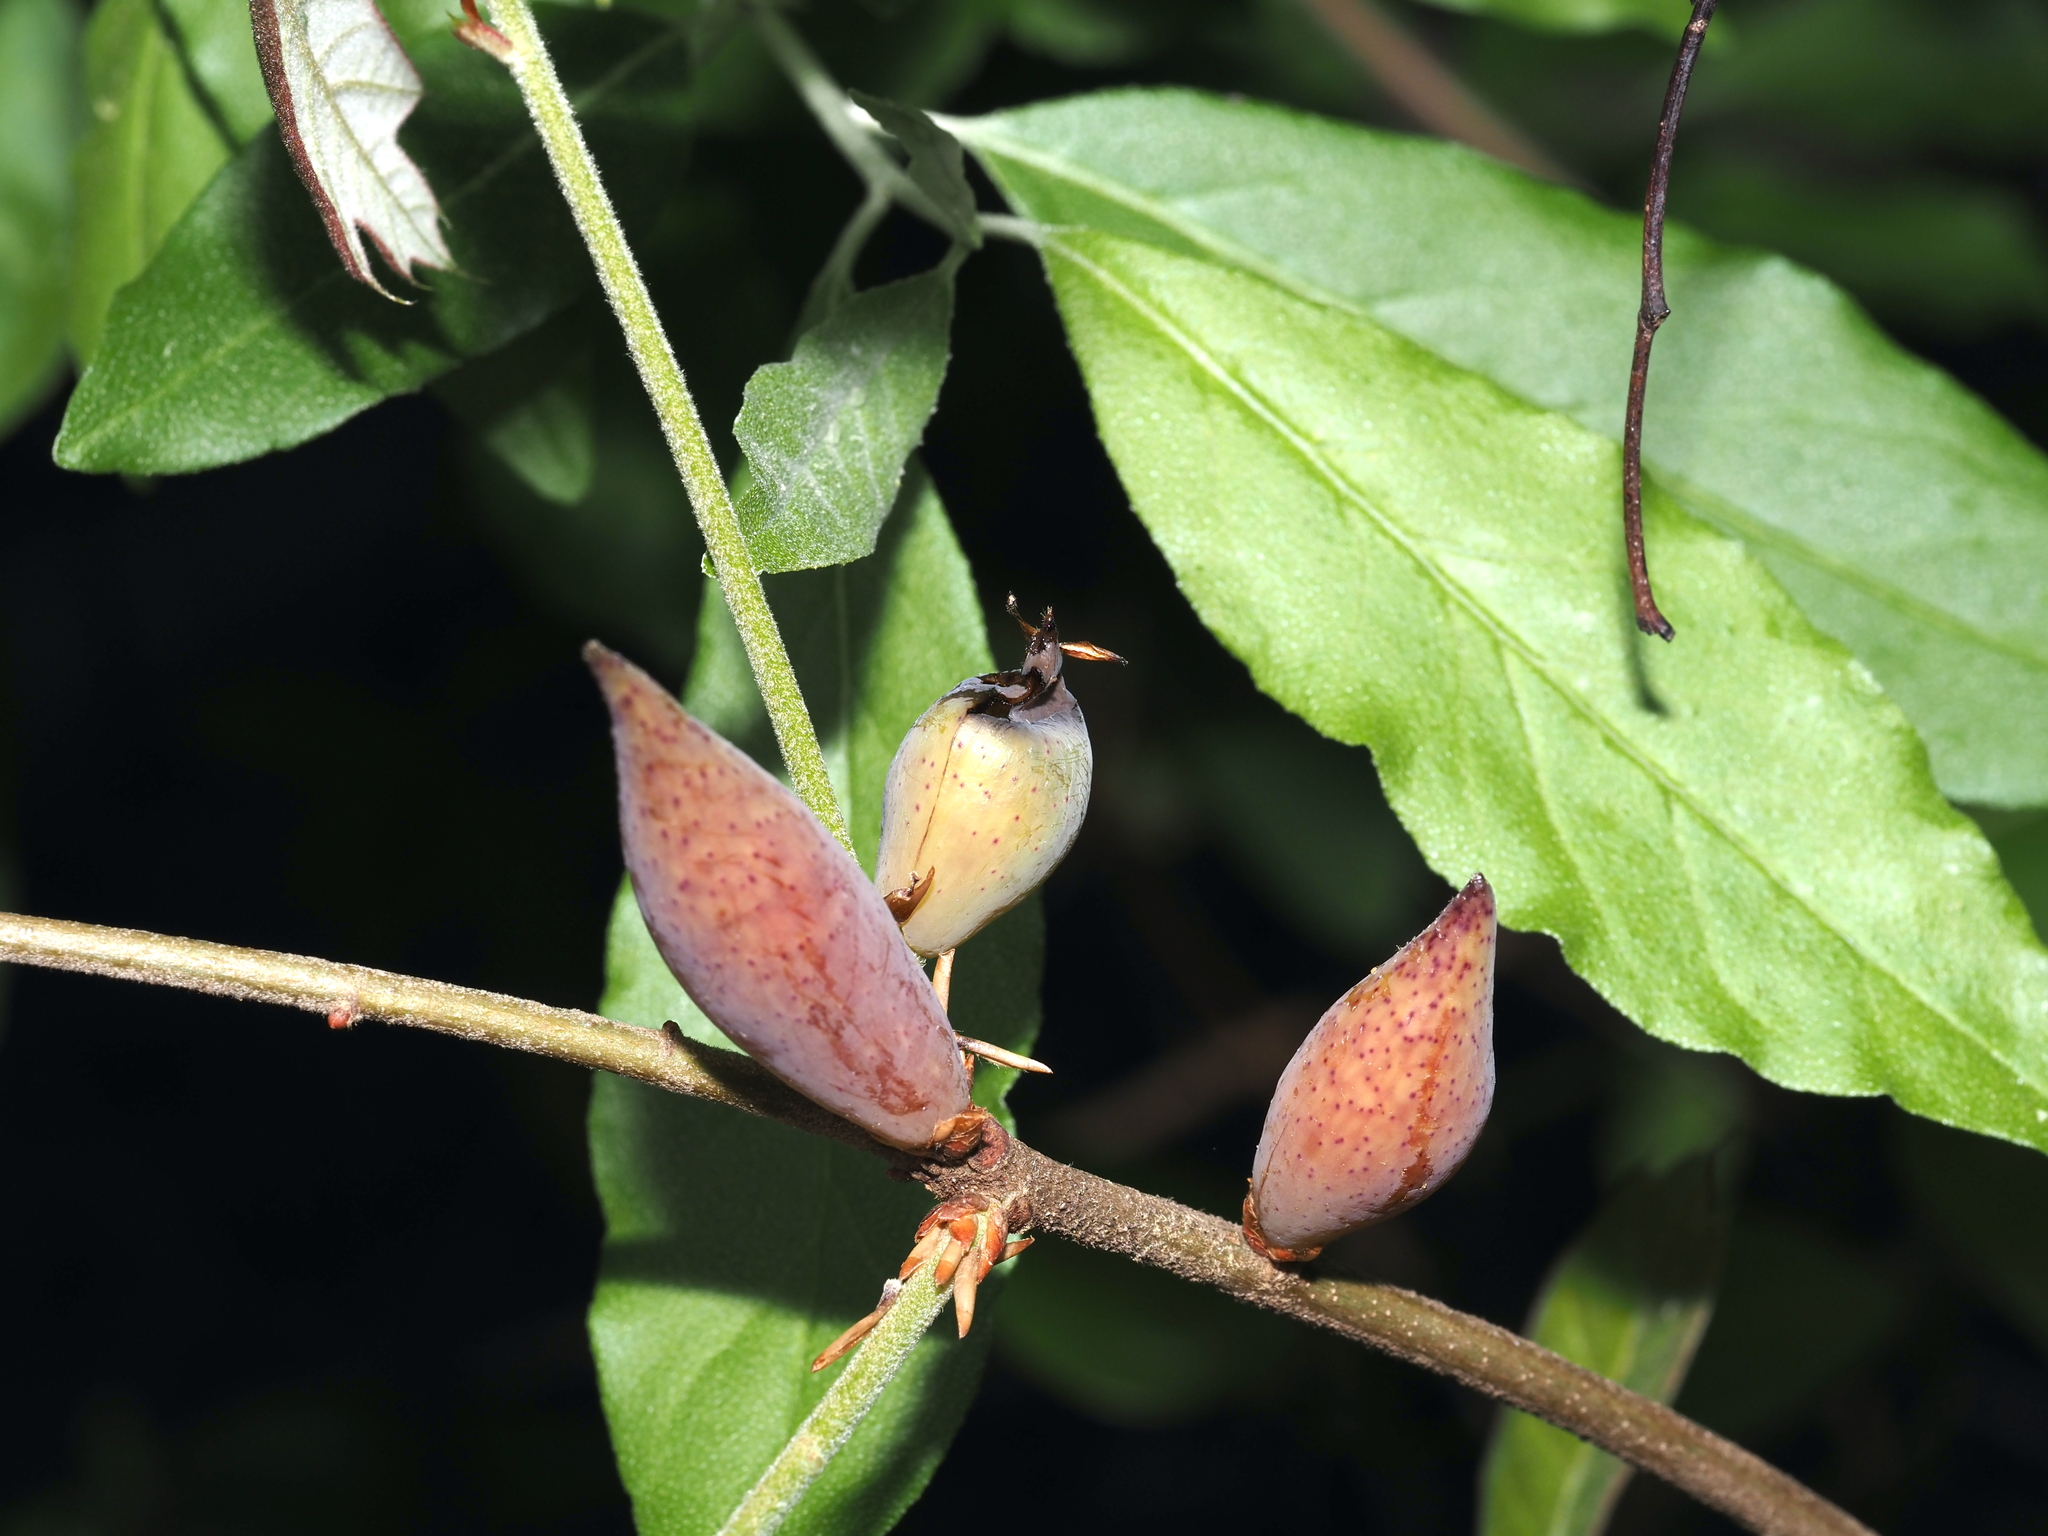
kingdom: Animalia
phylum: Arthropoda
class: Insecta
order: Hymenoptera
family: Cynipidae
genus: Amphibolips
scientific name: Amphibolips
